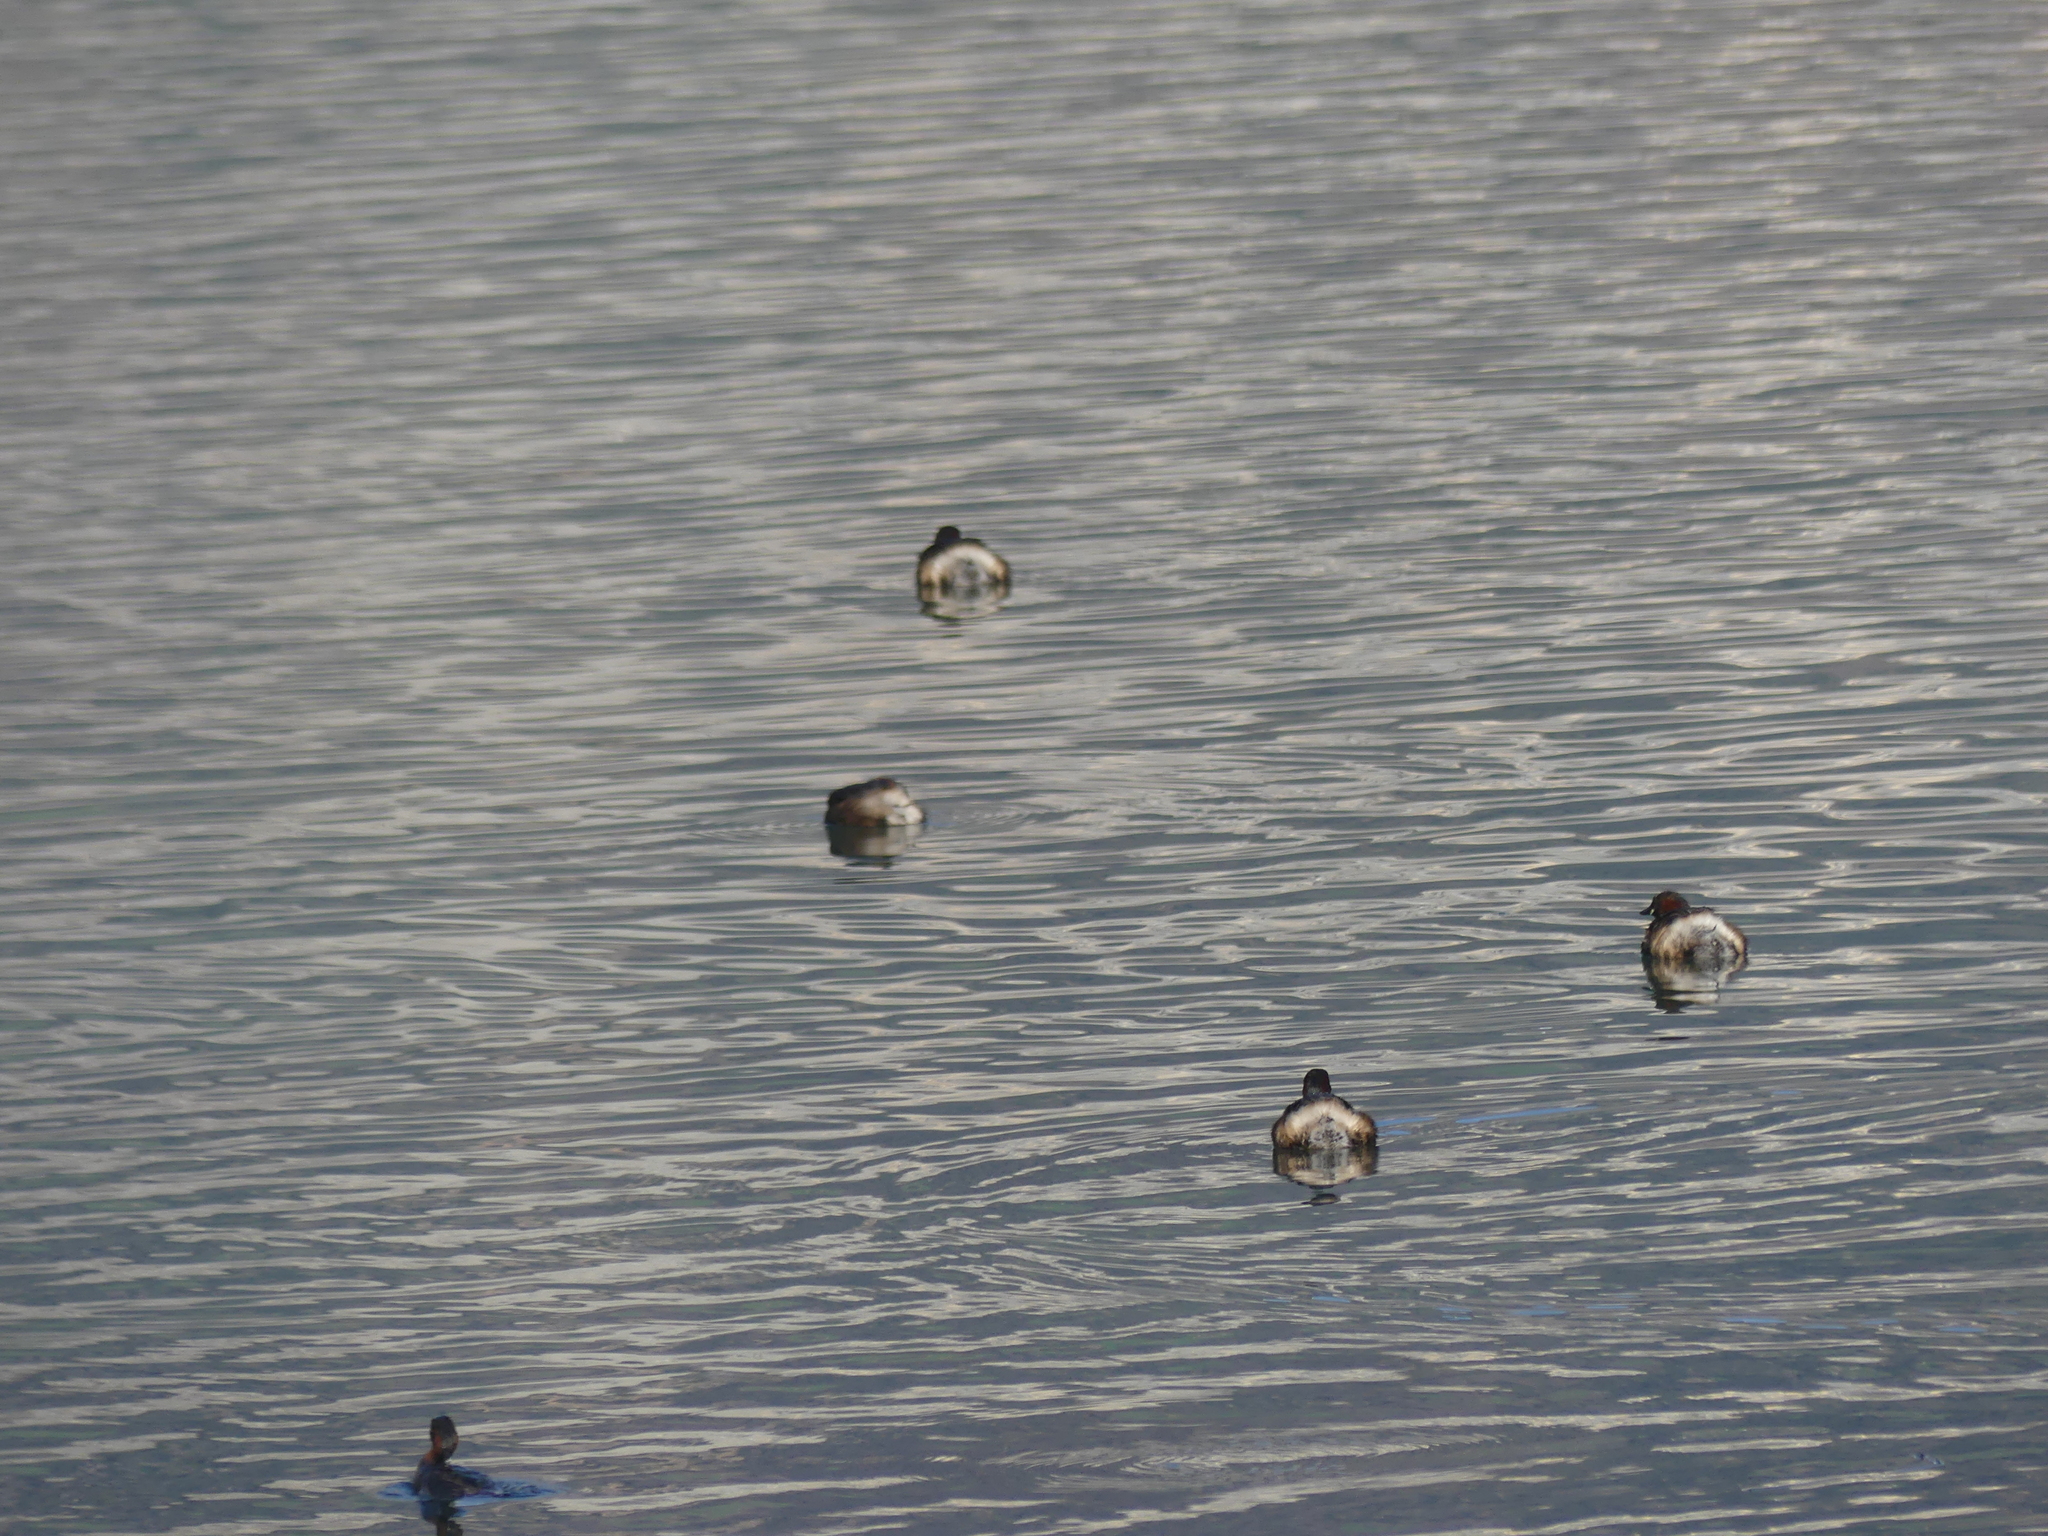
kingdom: Animalia
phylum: Chordata
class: Aves
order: Podicipediformes
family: Podicipedidae
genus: Tachybaptus
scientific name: Tachybaptus ruficollis
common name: Little grebe
